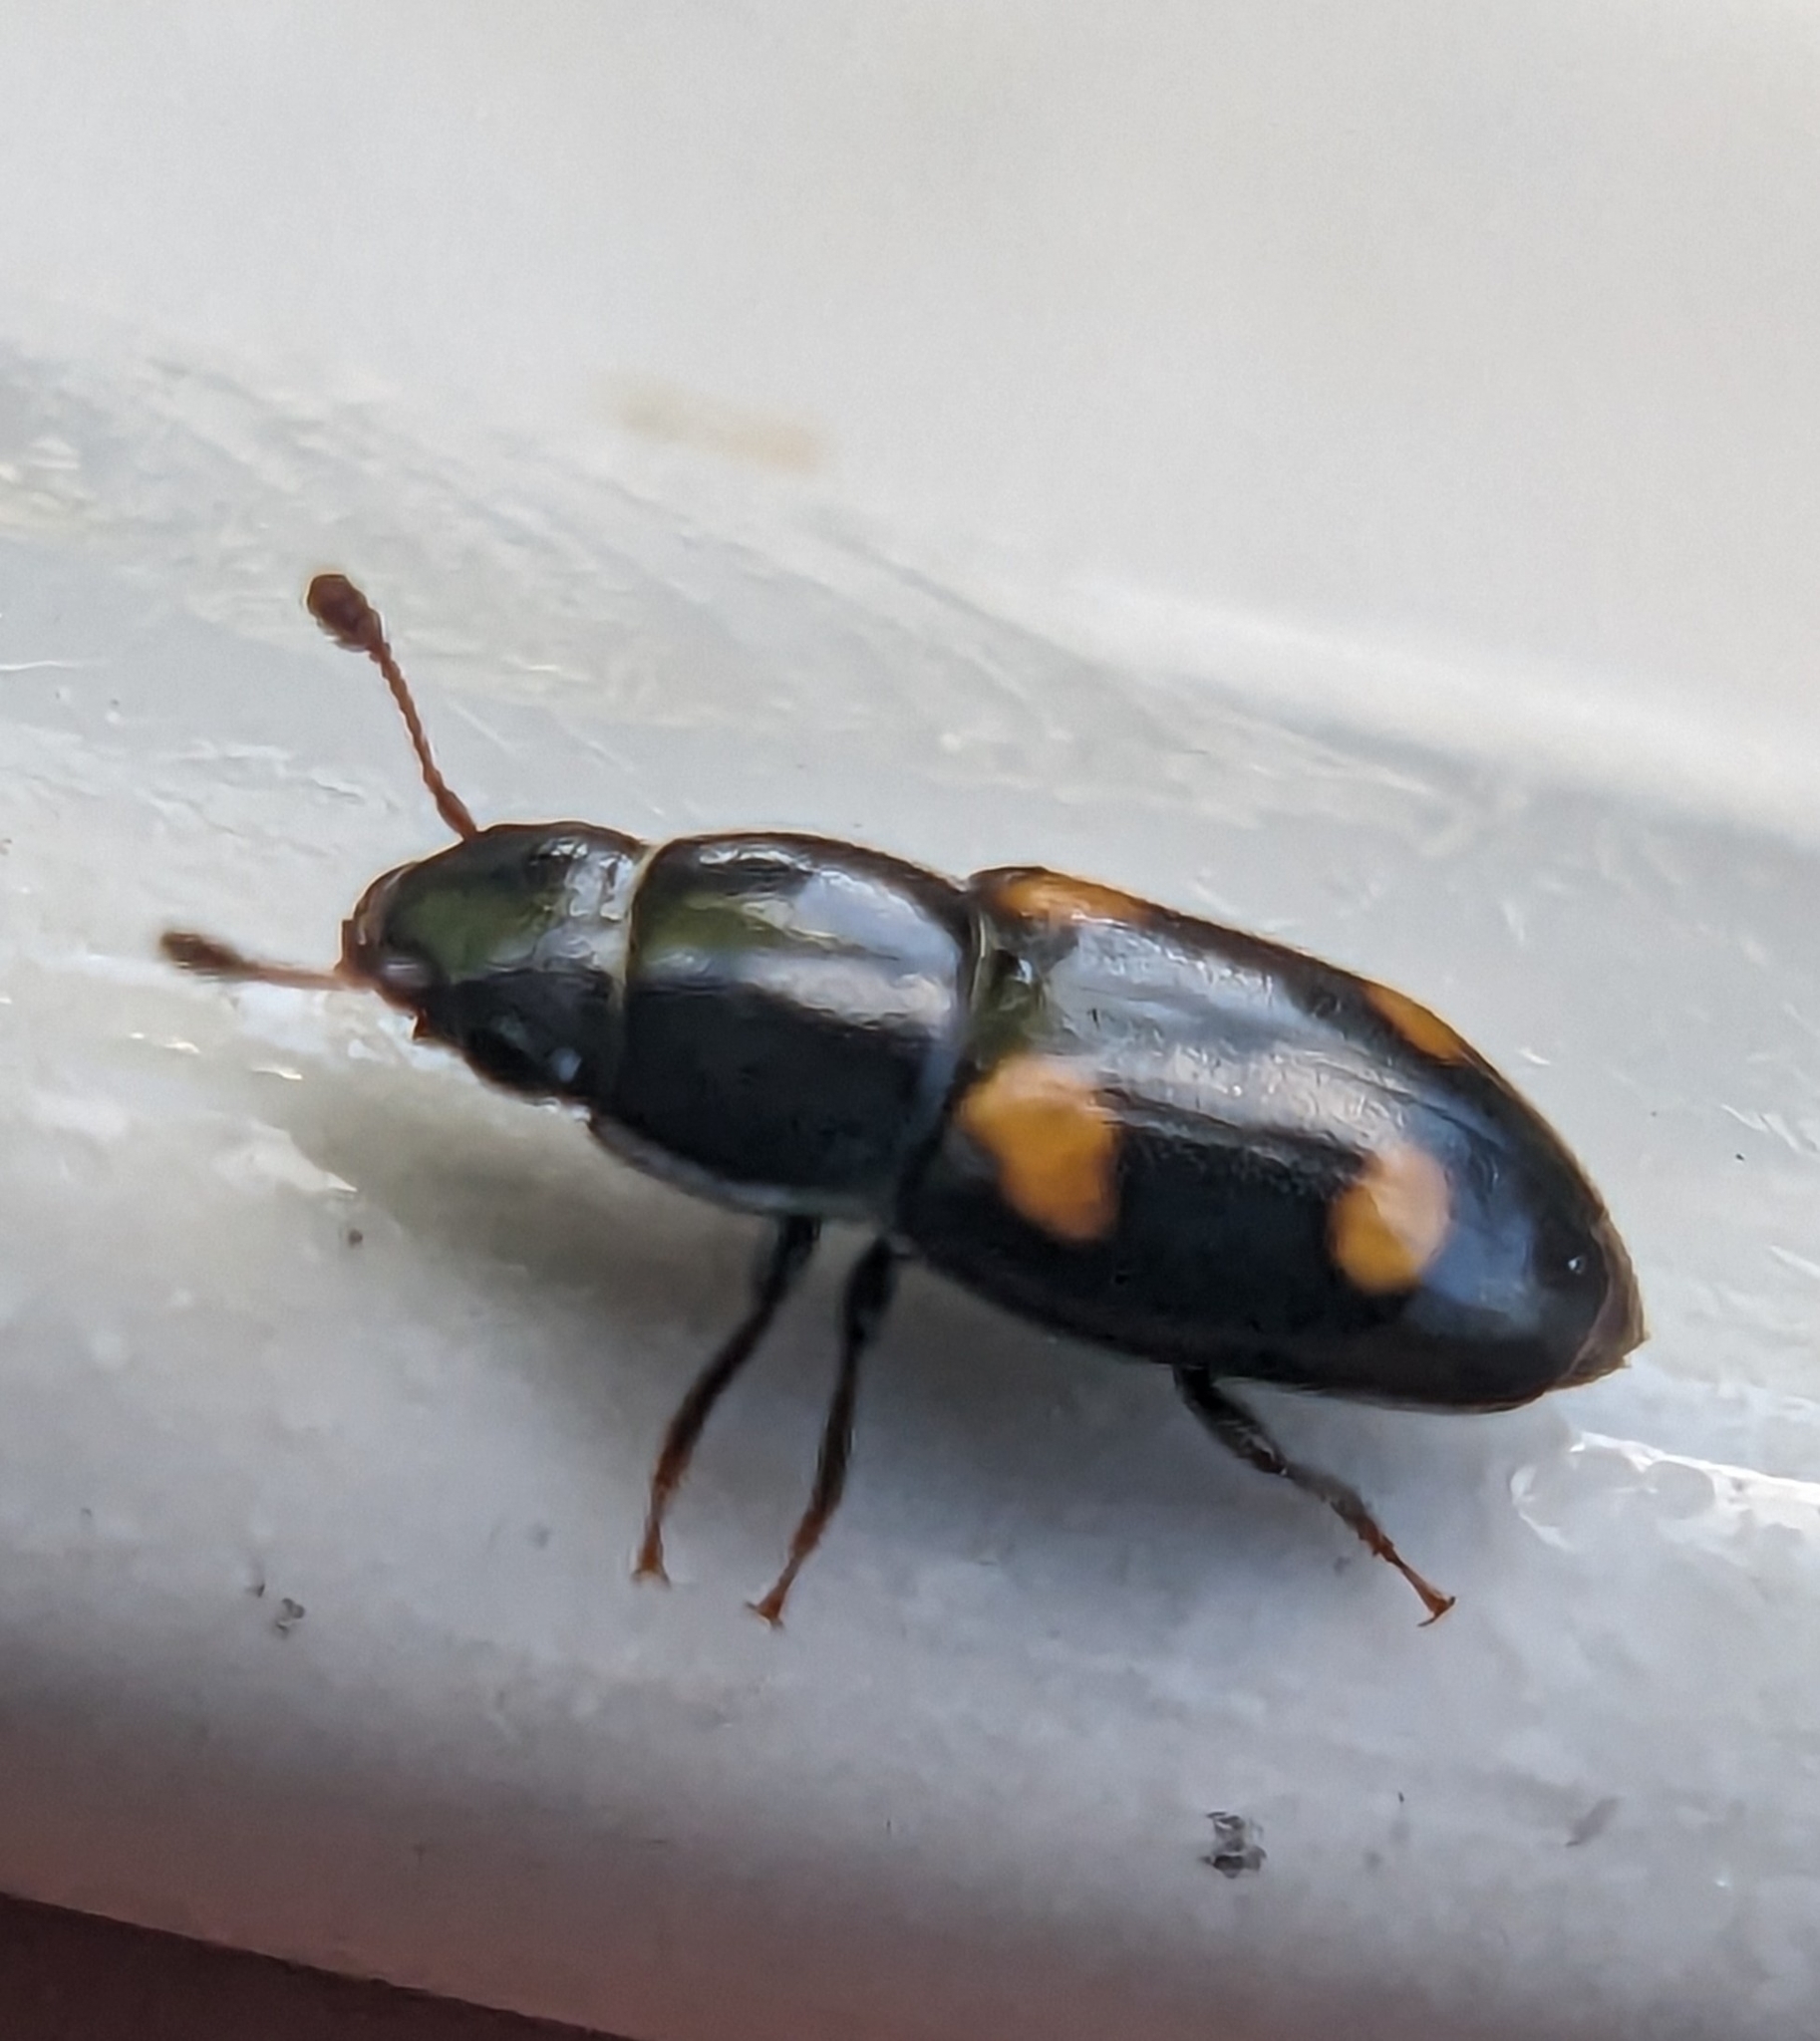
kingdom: Animalia
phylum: Arthropoda
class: Insecta
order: Coleoptera
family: Nitidulidae
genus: Glischrochilus
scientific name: Glischrochilus hortensis
